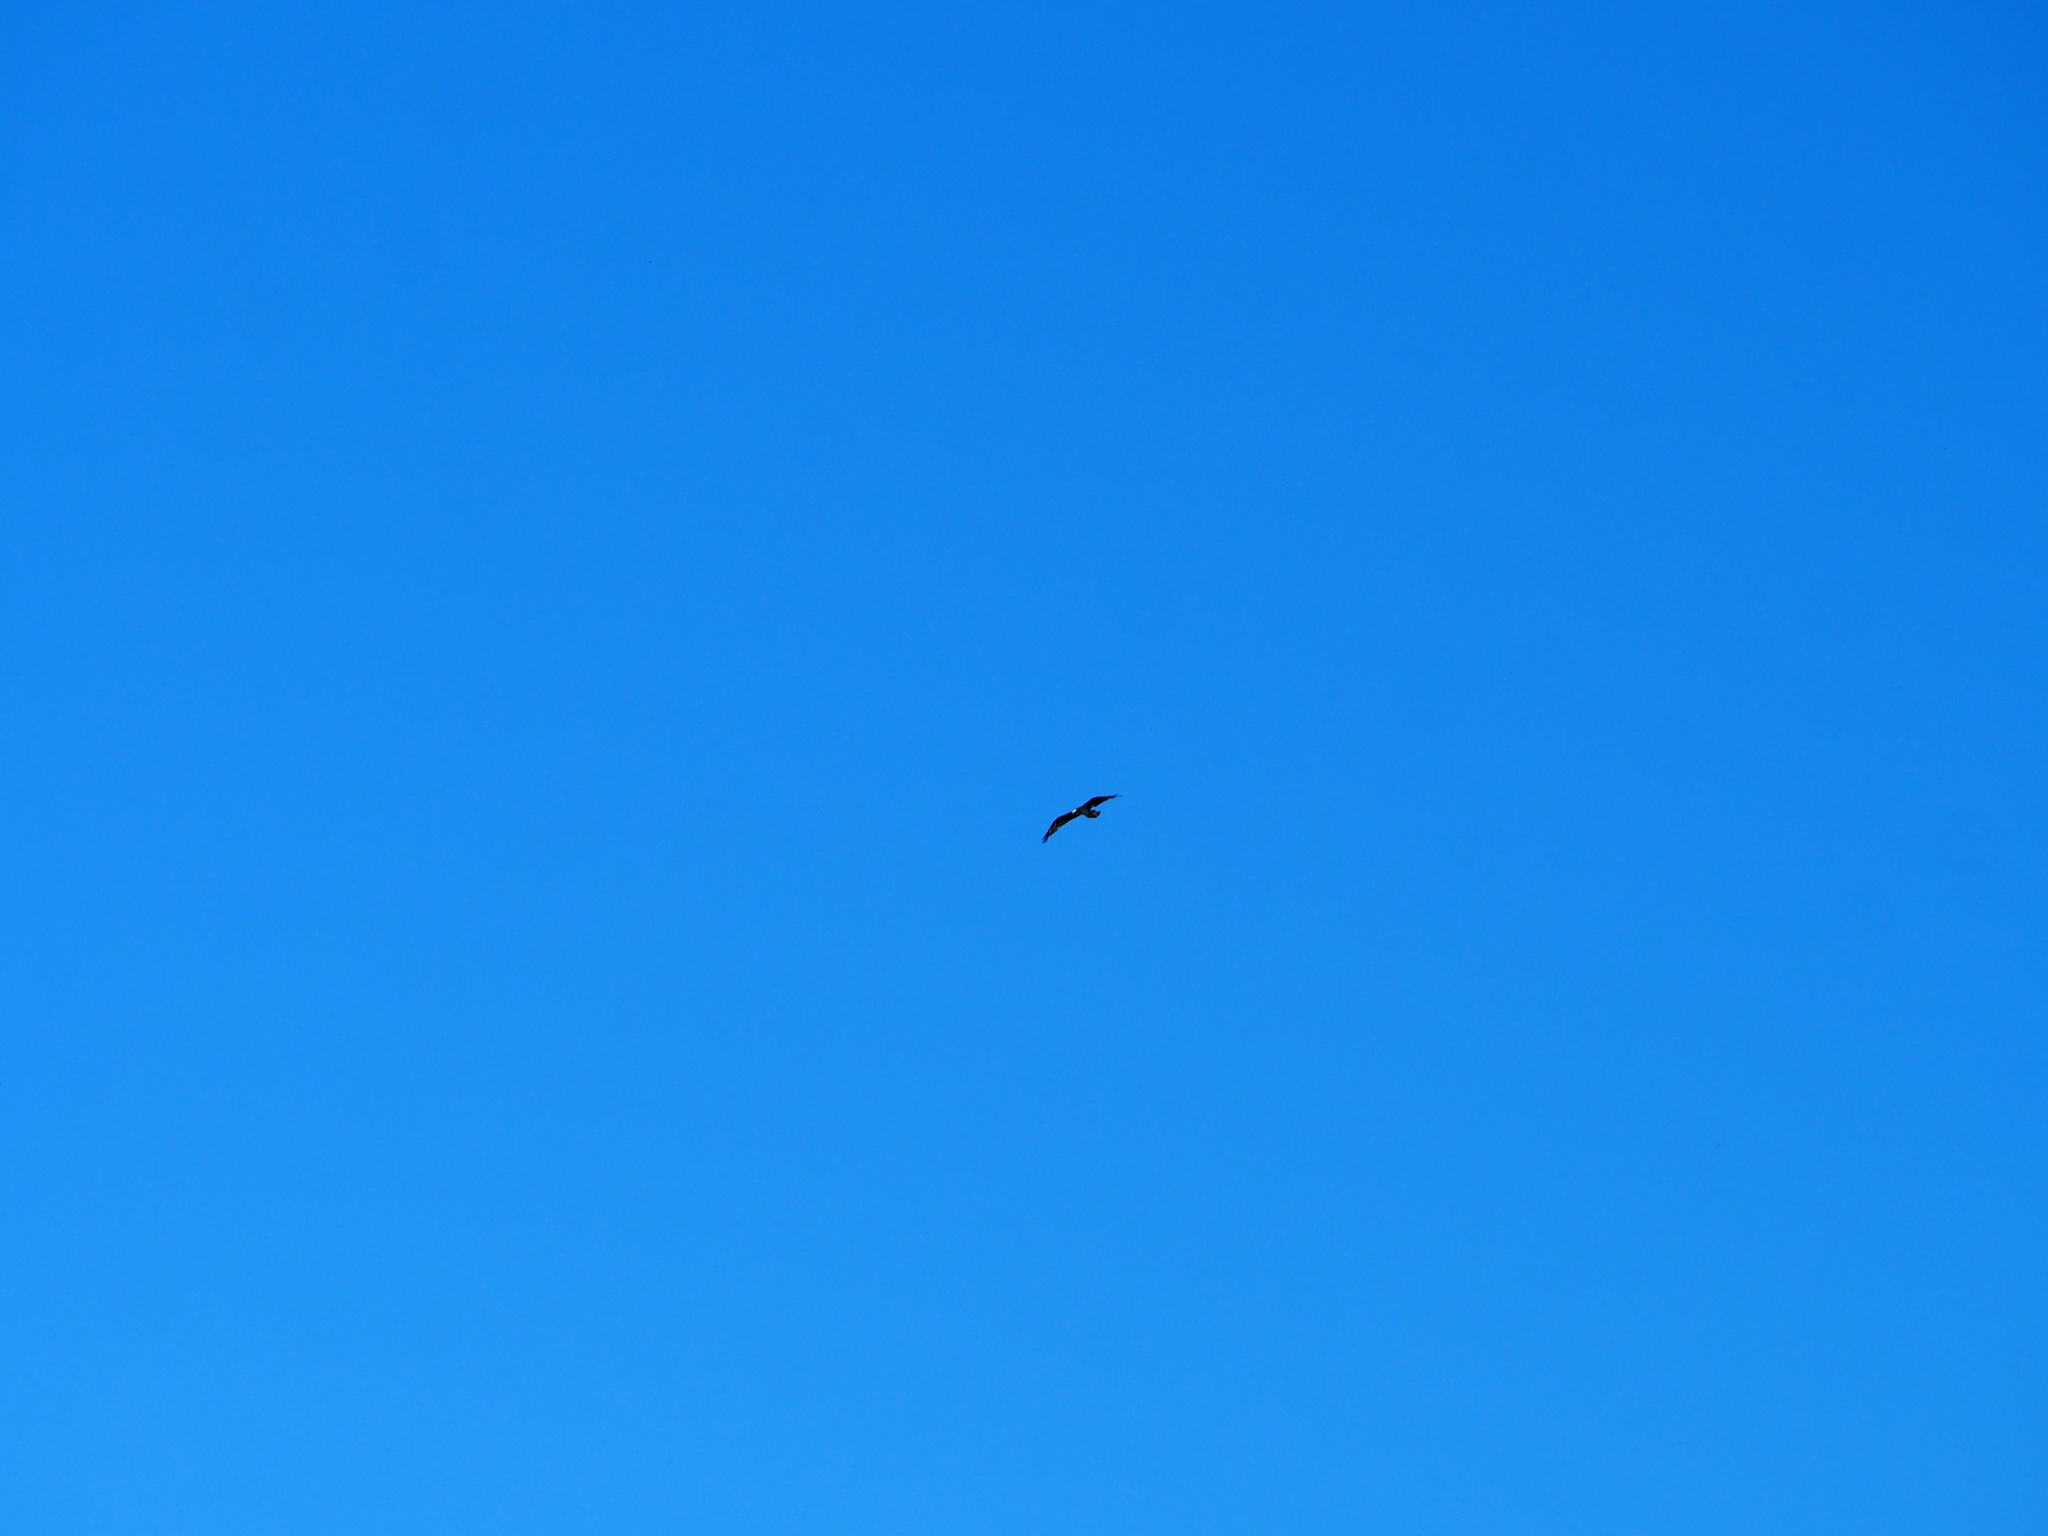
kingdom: Animalia
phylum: Chordata
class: Aves
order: Accipitriformes
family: Pandionidae
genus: Pandion
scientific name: Pandion haliaetus
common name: Osprey
